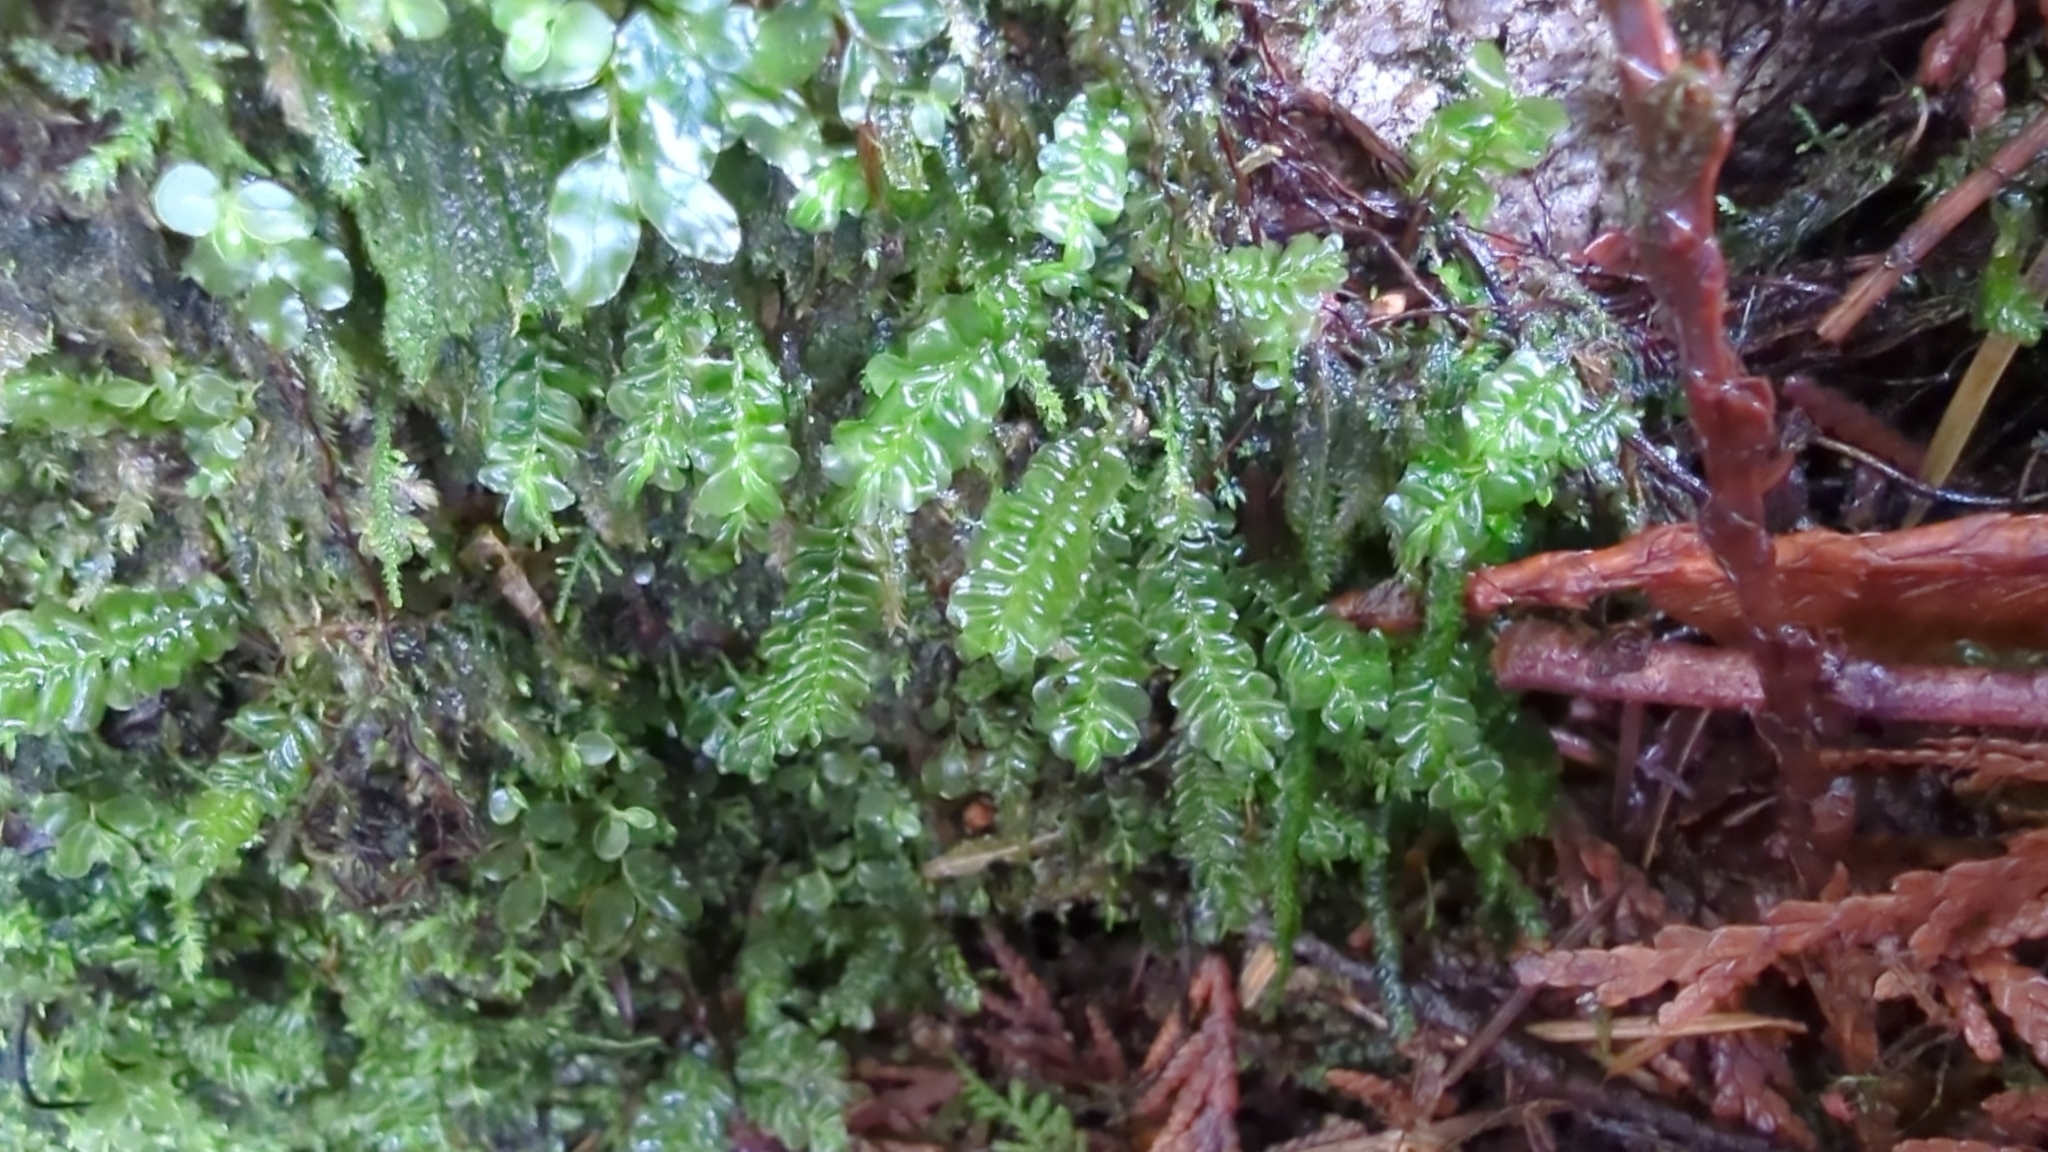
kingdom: Plantae
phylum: Marchantiophyta
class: Jungermanniopsida
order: Jungermanniales
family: Plagiochilaceae
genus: Plagiochila
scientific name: Plagiochila porelloides
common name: Lesser featherwort
